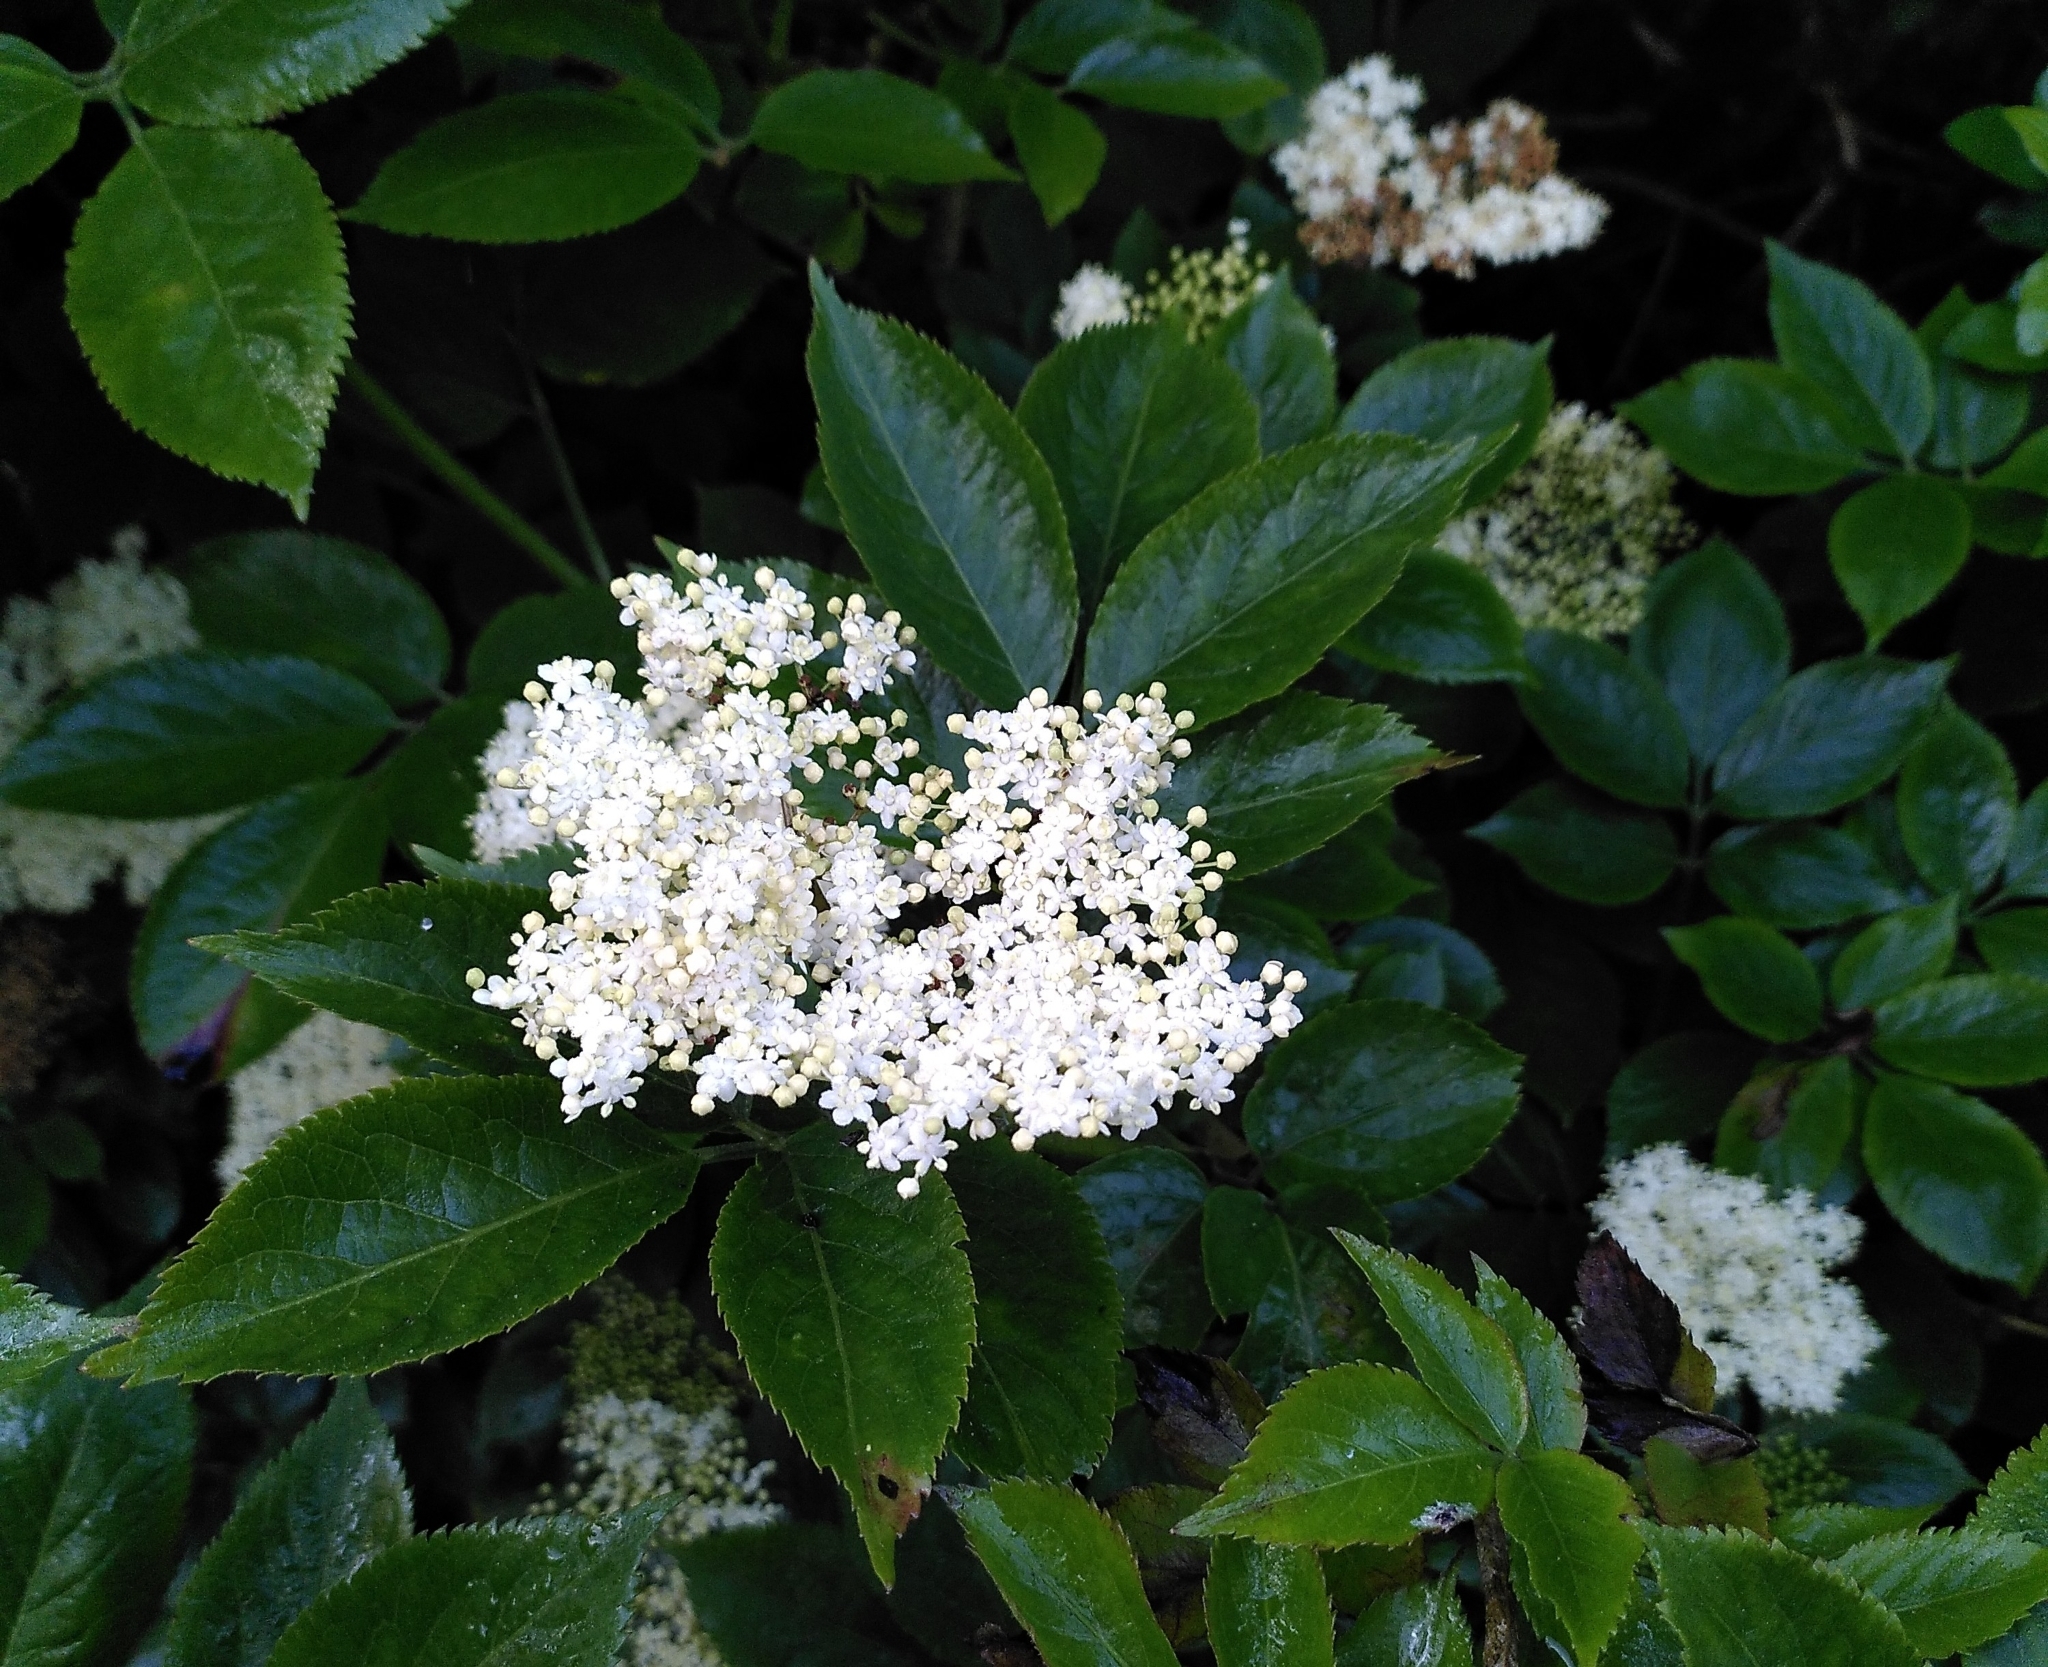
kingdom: Plantae
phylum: Tracheophyta
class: Magnoliopsida
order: Dipsacales
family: Viburnaceae
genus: Sambucus
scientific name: Sambucus nigra
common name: Elder
